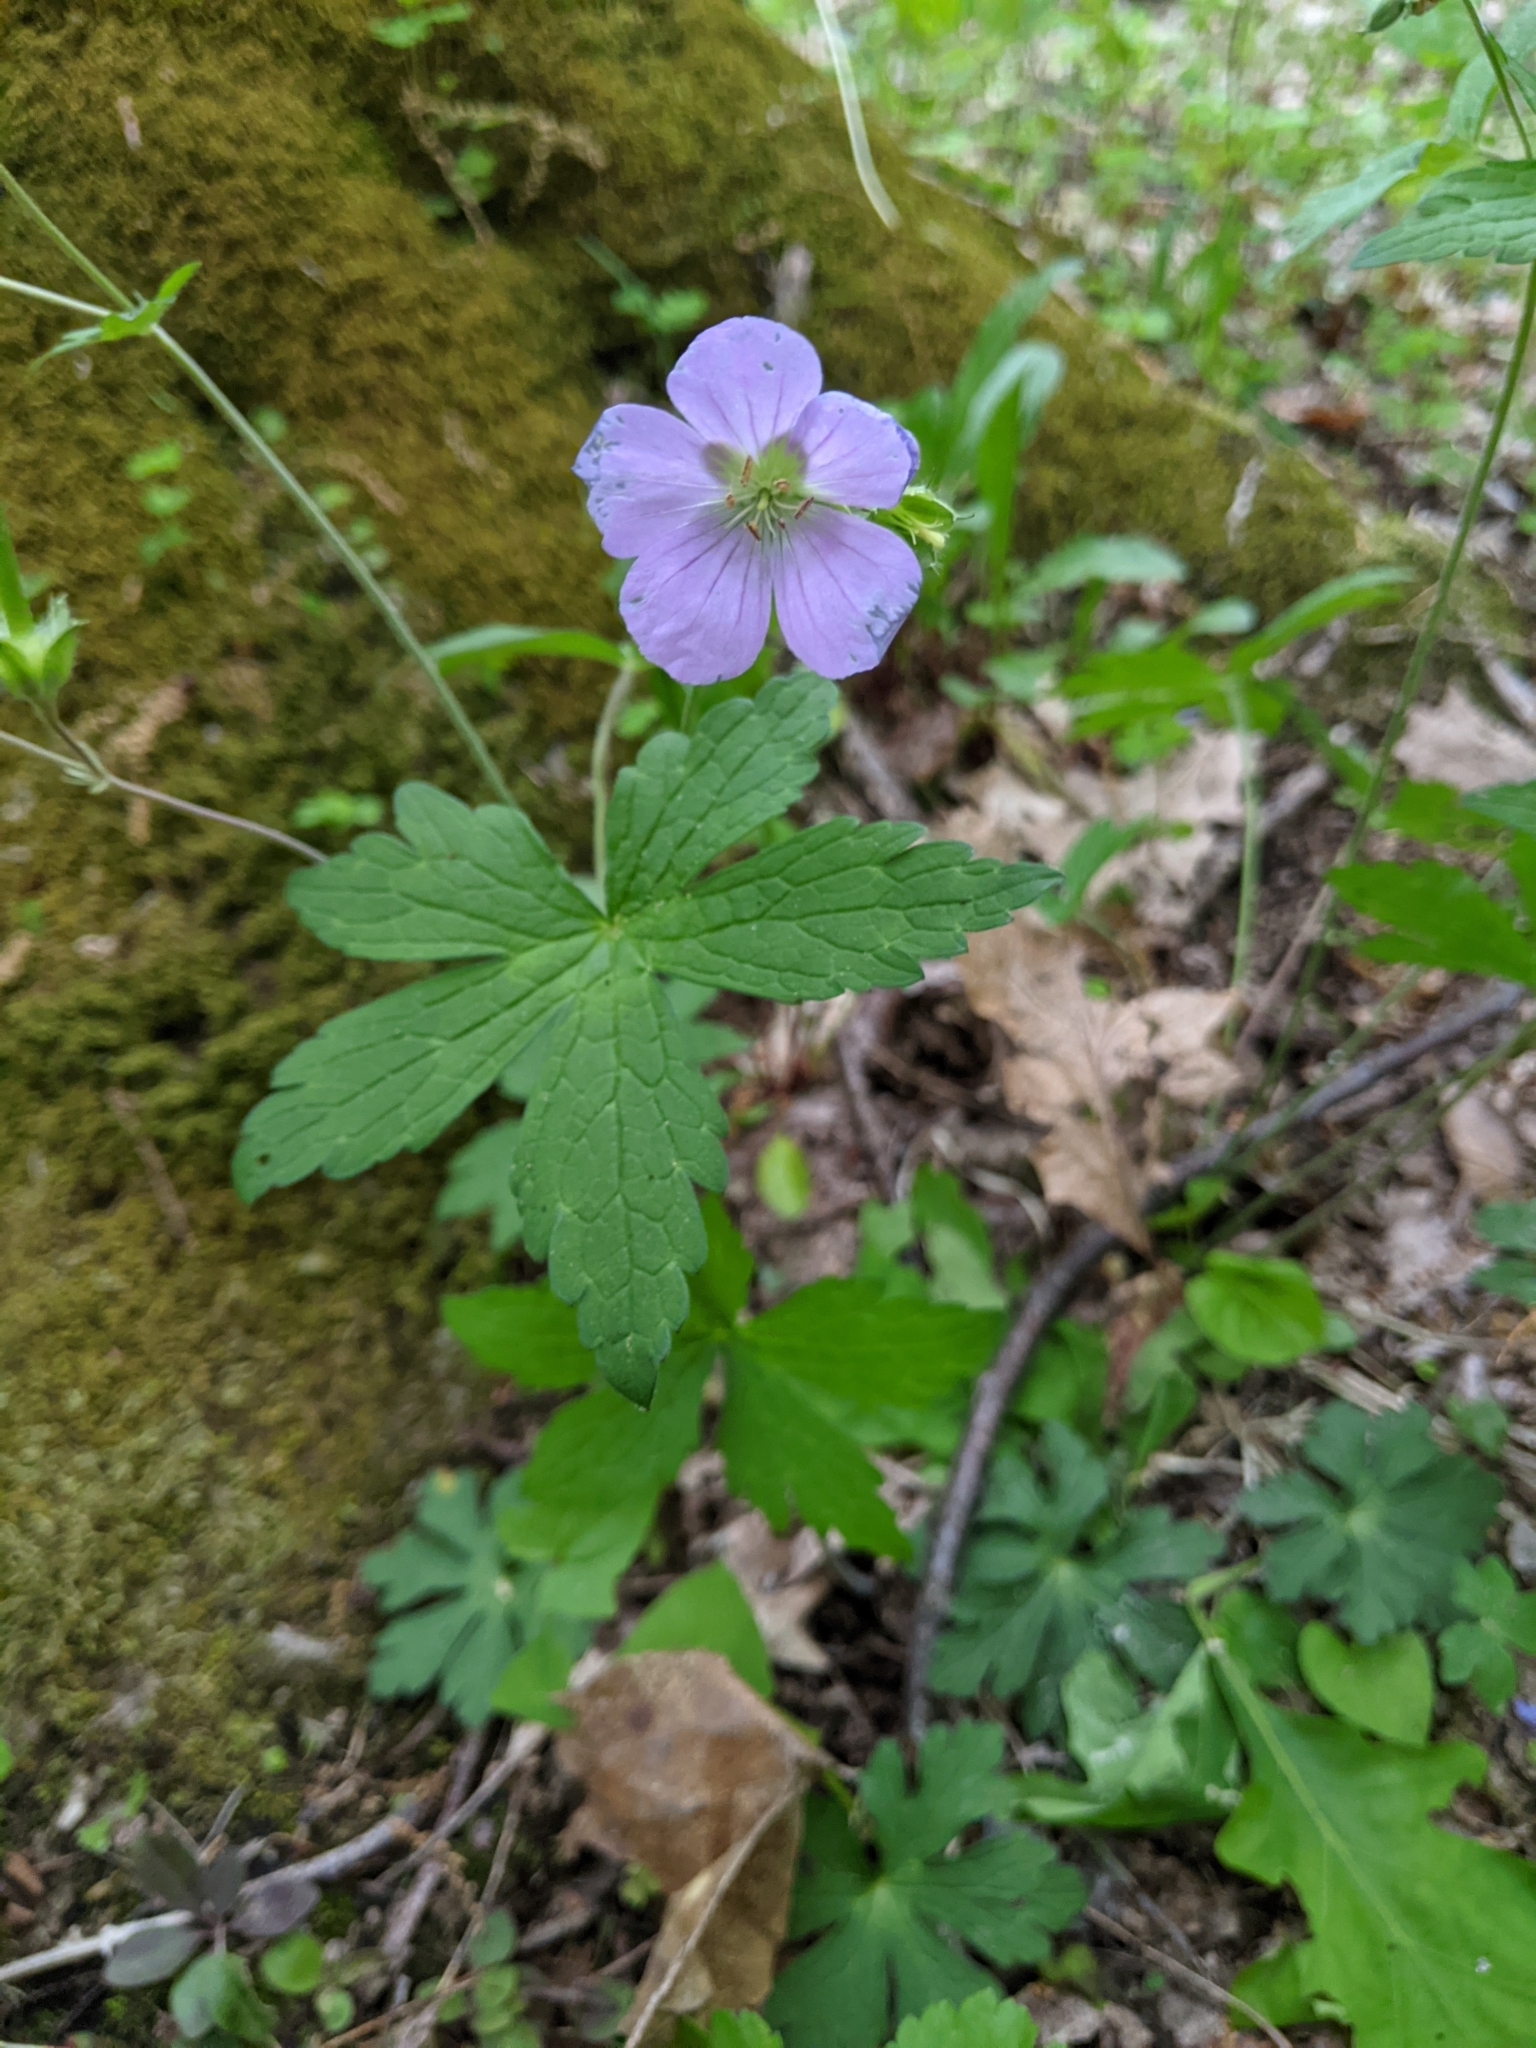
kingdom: Plantae
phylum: Tracheophyta
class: Magnoliopsida
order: Geraniales
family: Geraniaceae
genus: Geranium
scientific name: Geranium maculatum
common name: Spotted geranium
